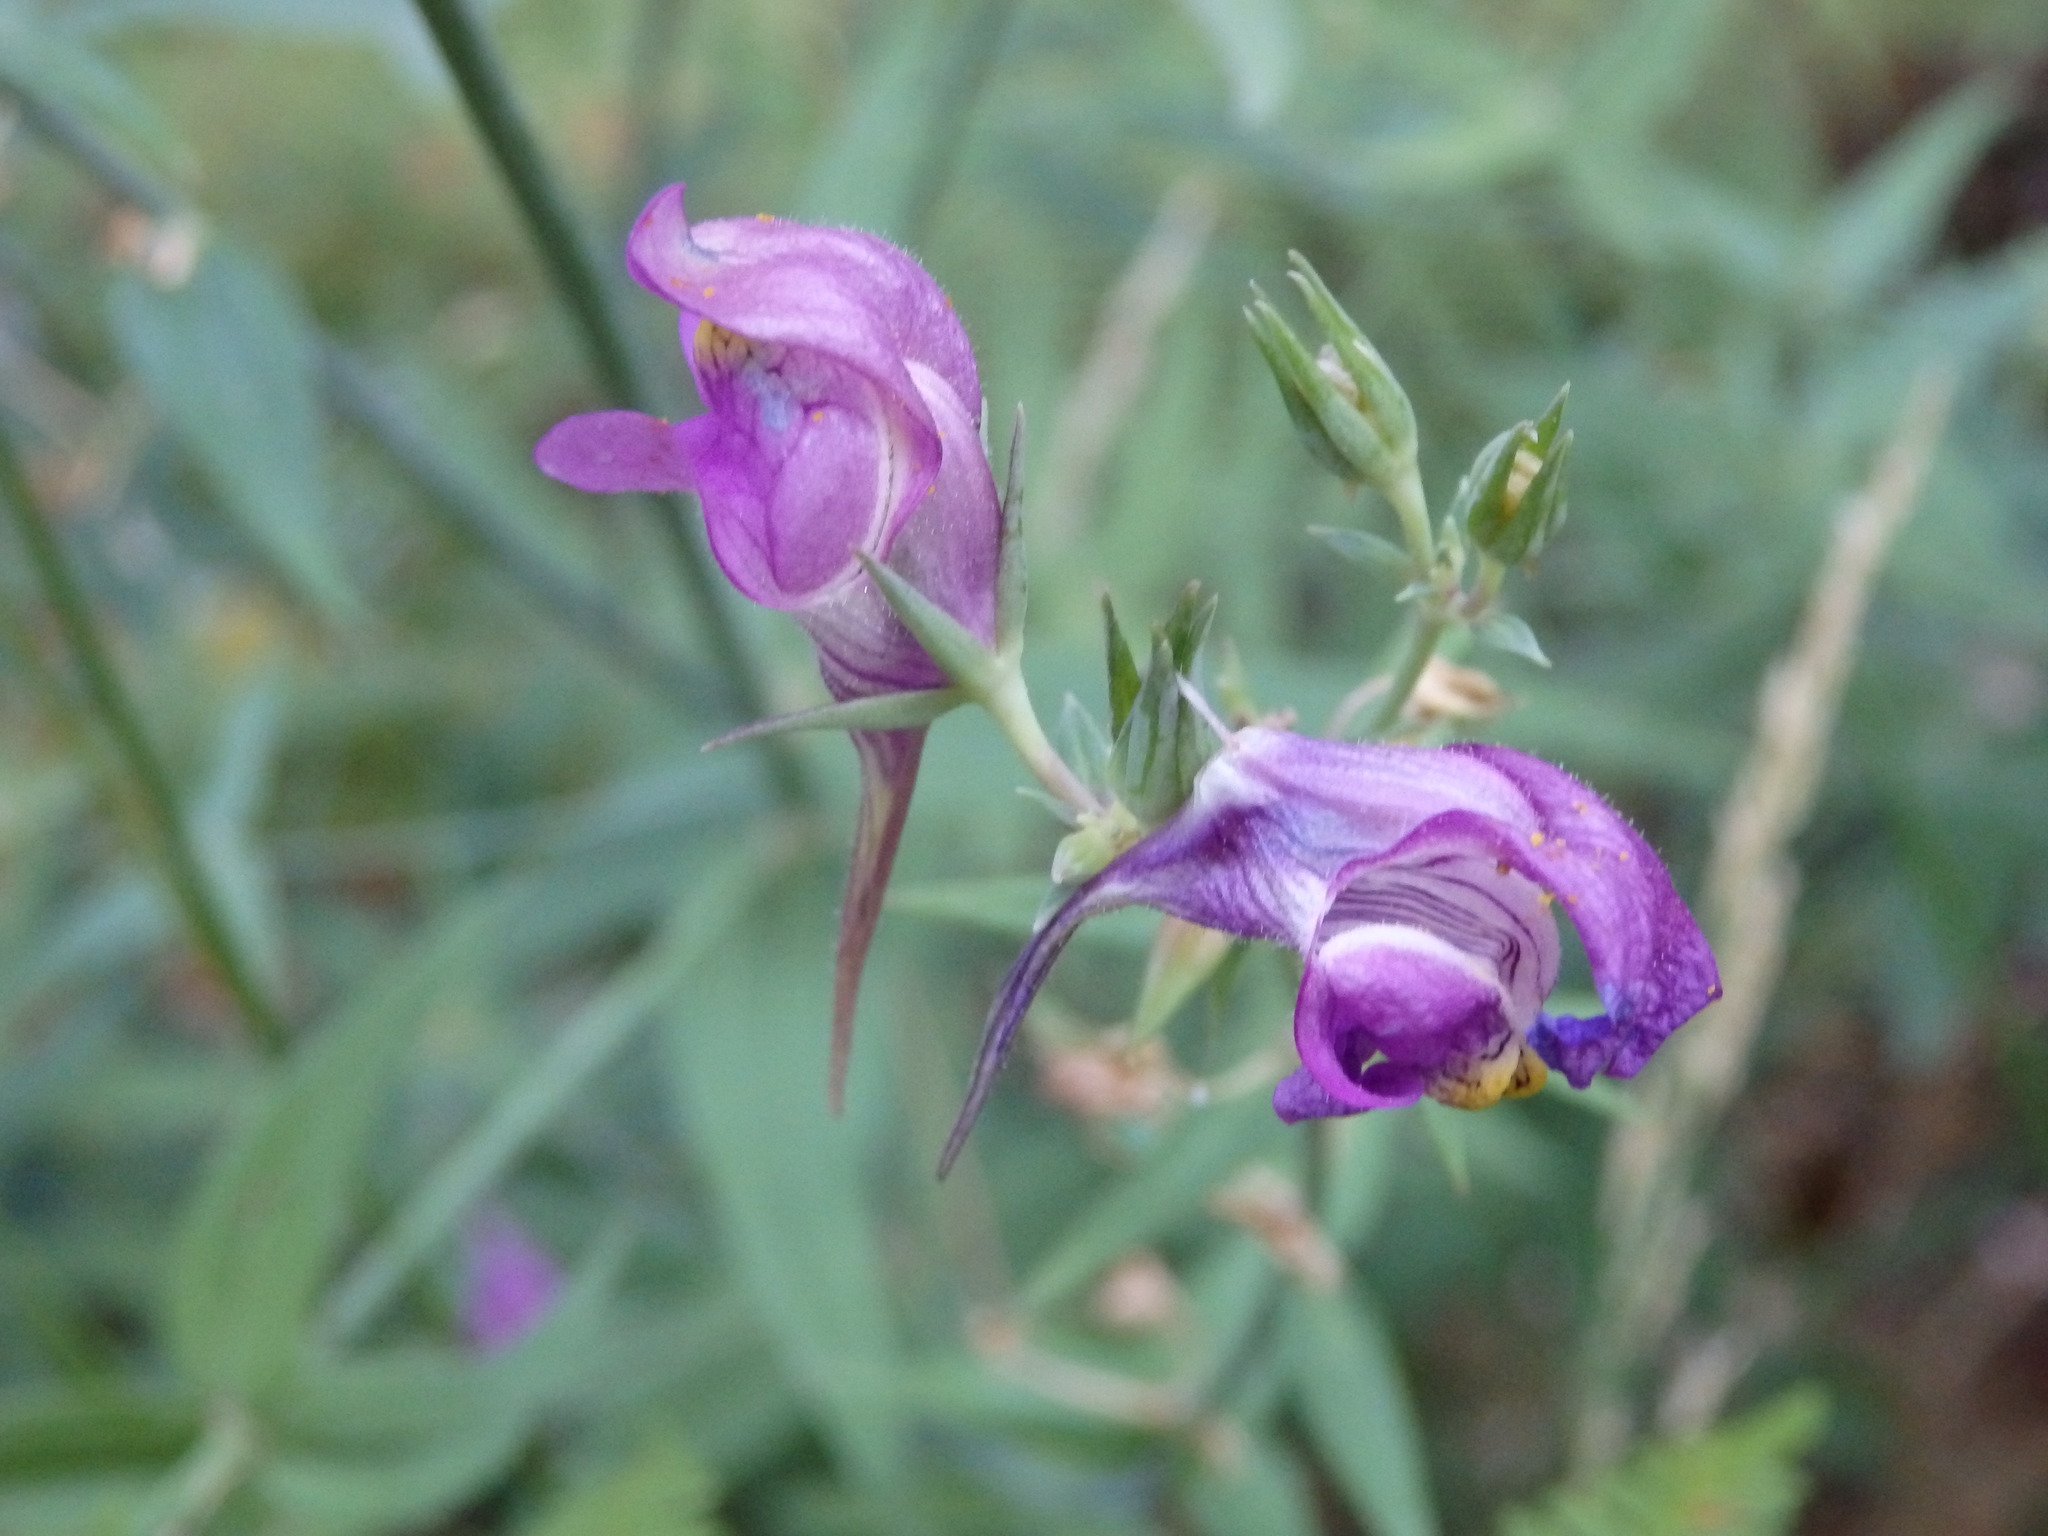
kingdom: Plantae
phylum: Tracheophyta
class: Magnoliopsida
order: Lamiales
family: Plantaginaceae
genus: Linaria
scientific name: Linaria triornithophora
